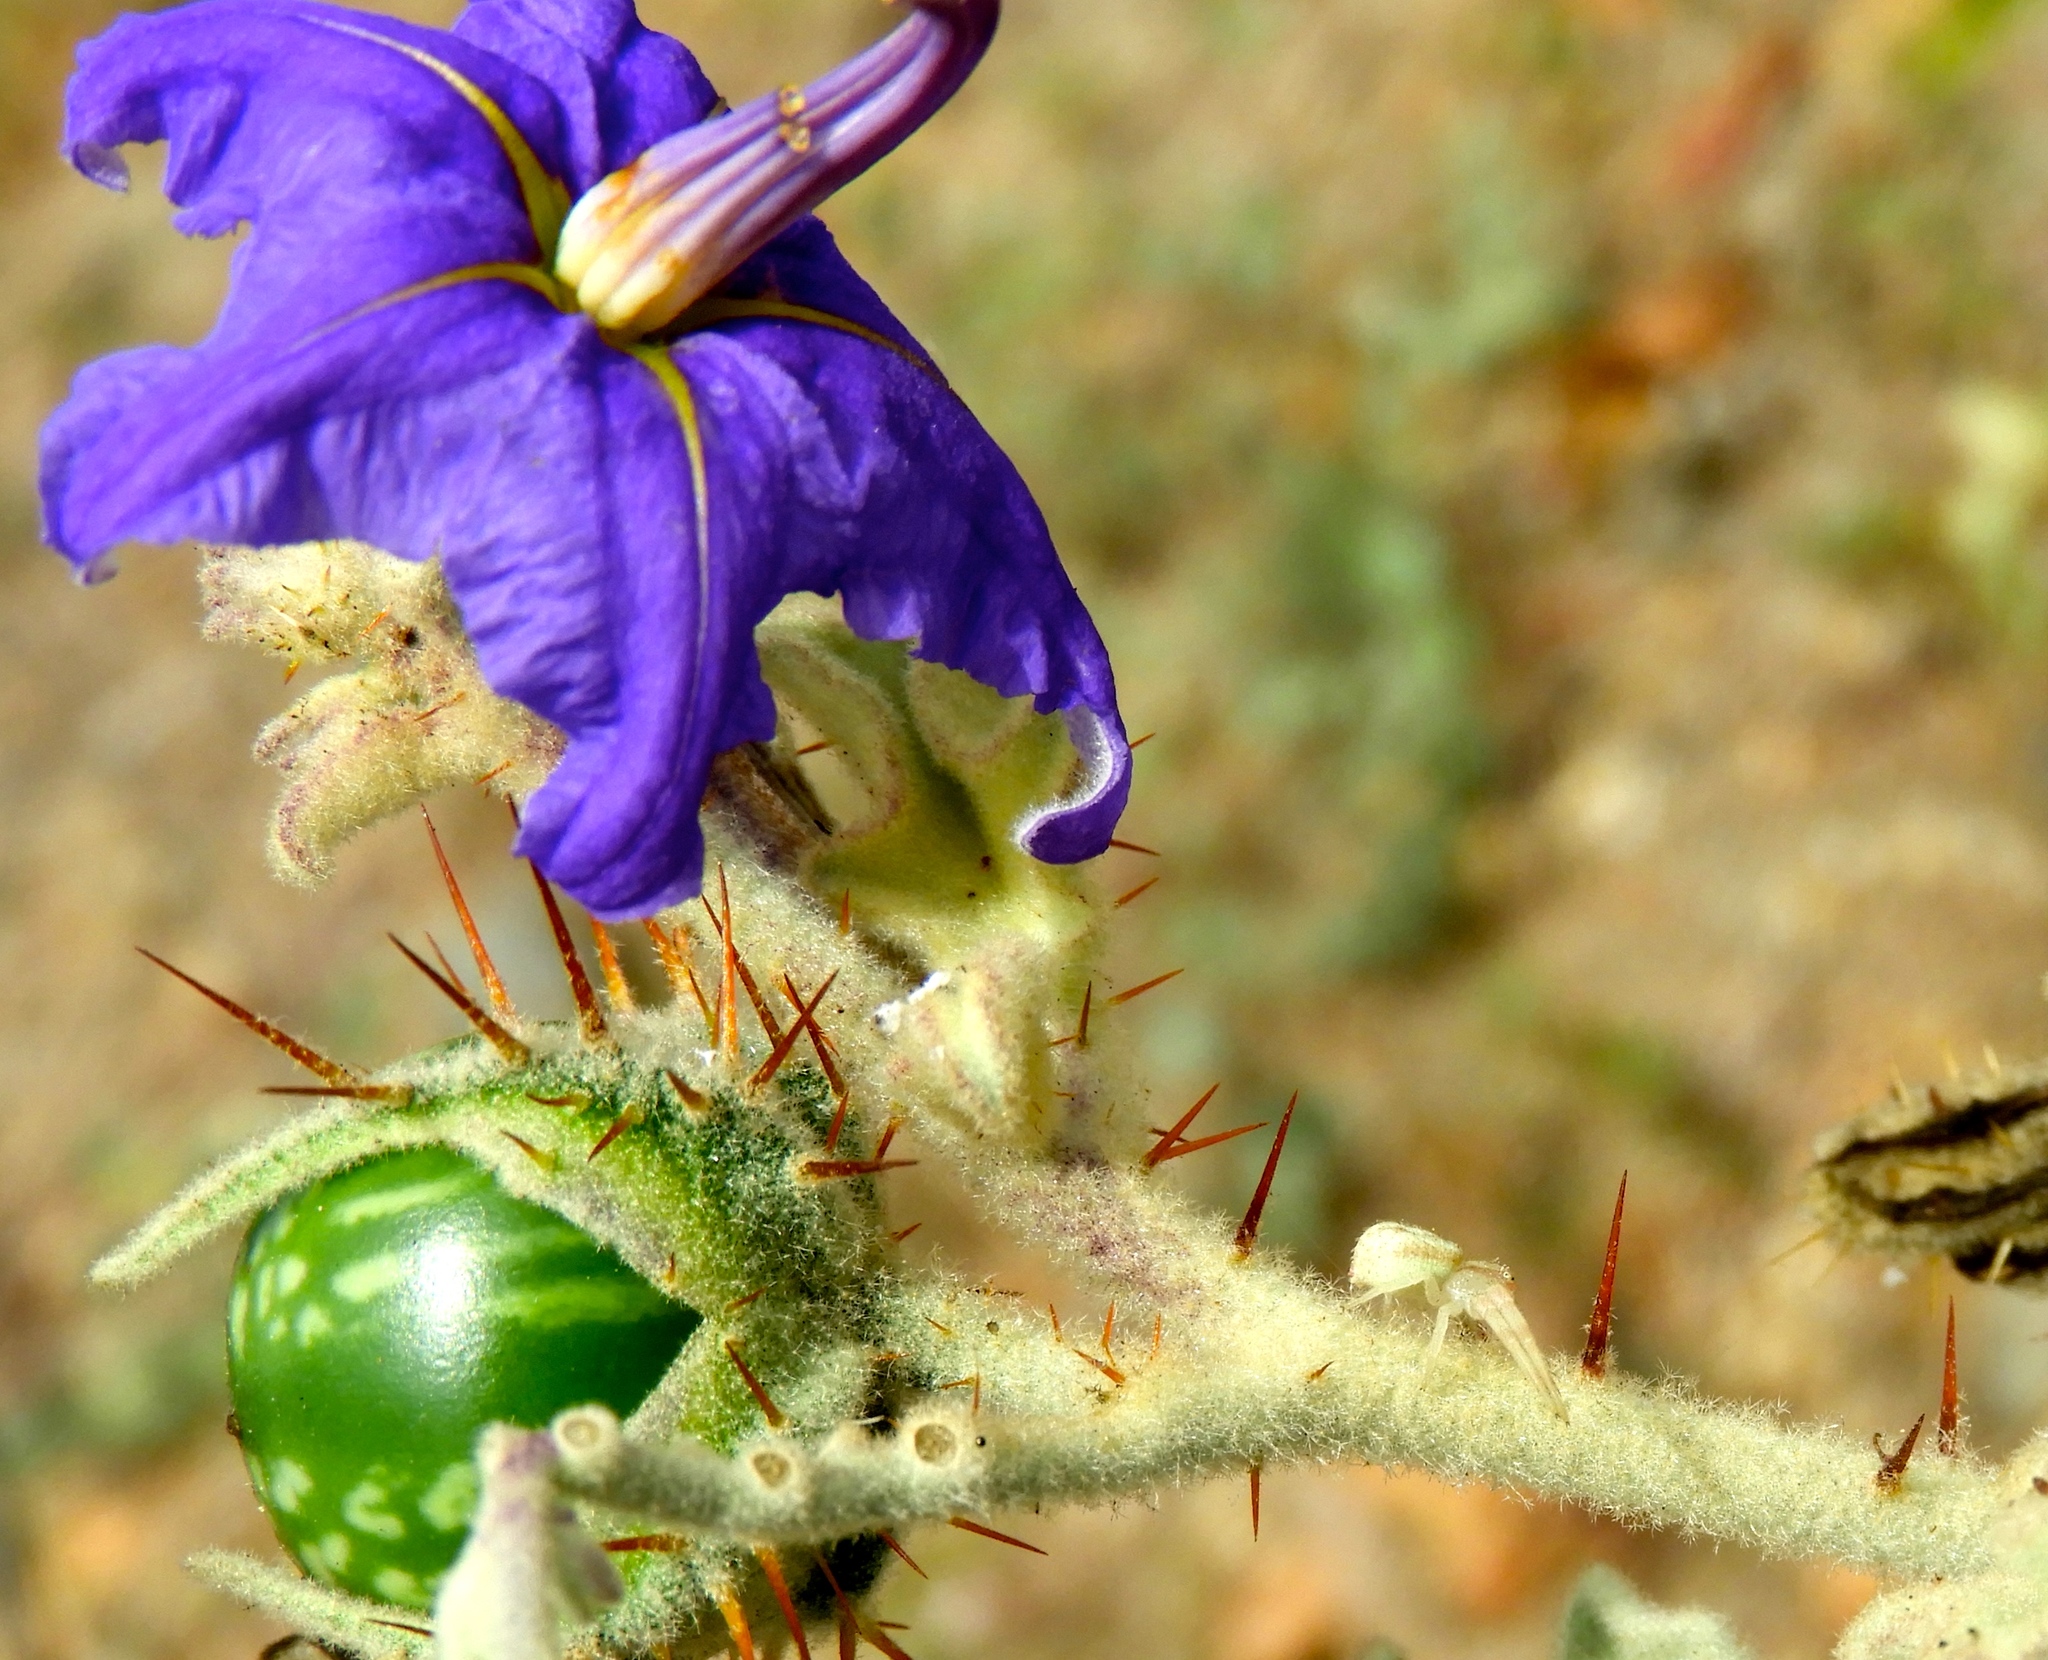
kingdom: Plantae
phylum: Tracheophyta
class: Magnoliopsida
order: Solanales
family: Solanaceae
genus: Solanum
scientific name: Solanum houstonii
